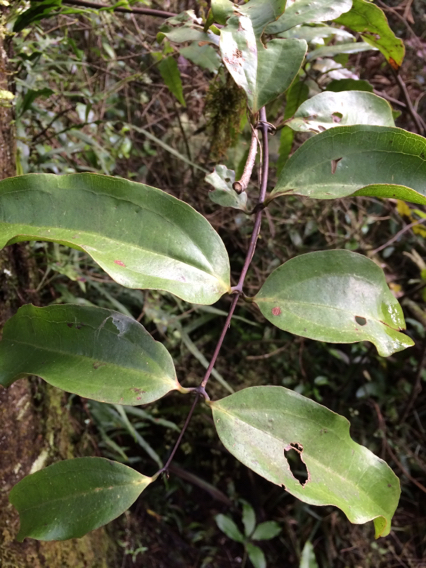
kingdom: Plantae
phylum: Tracheophyta
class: Liliopsida
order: Liliales
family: Ripogonaceae
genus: Ripogonum
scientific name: Ripogonum scandens
